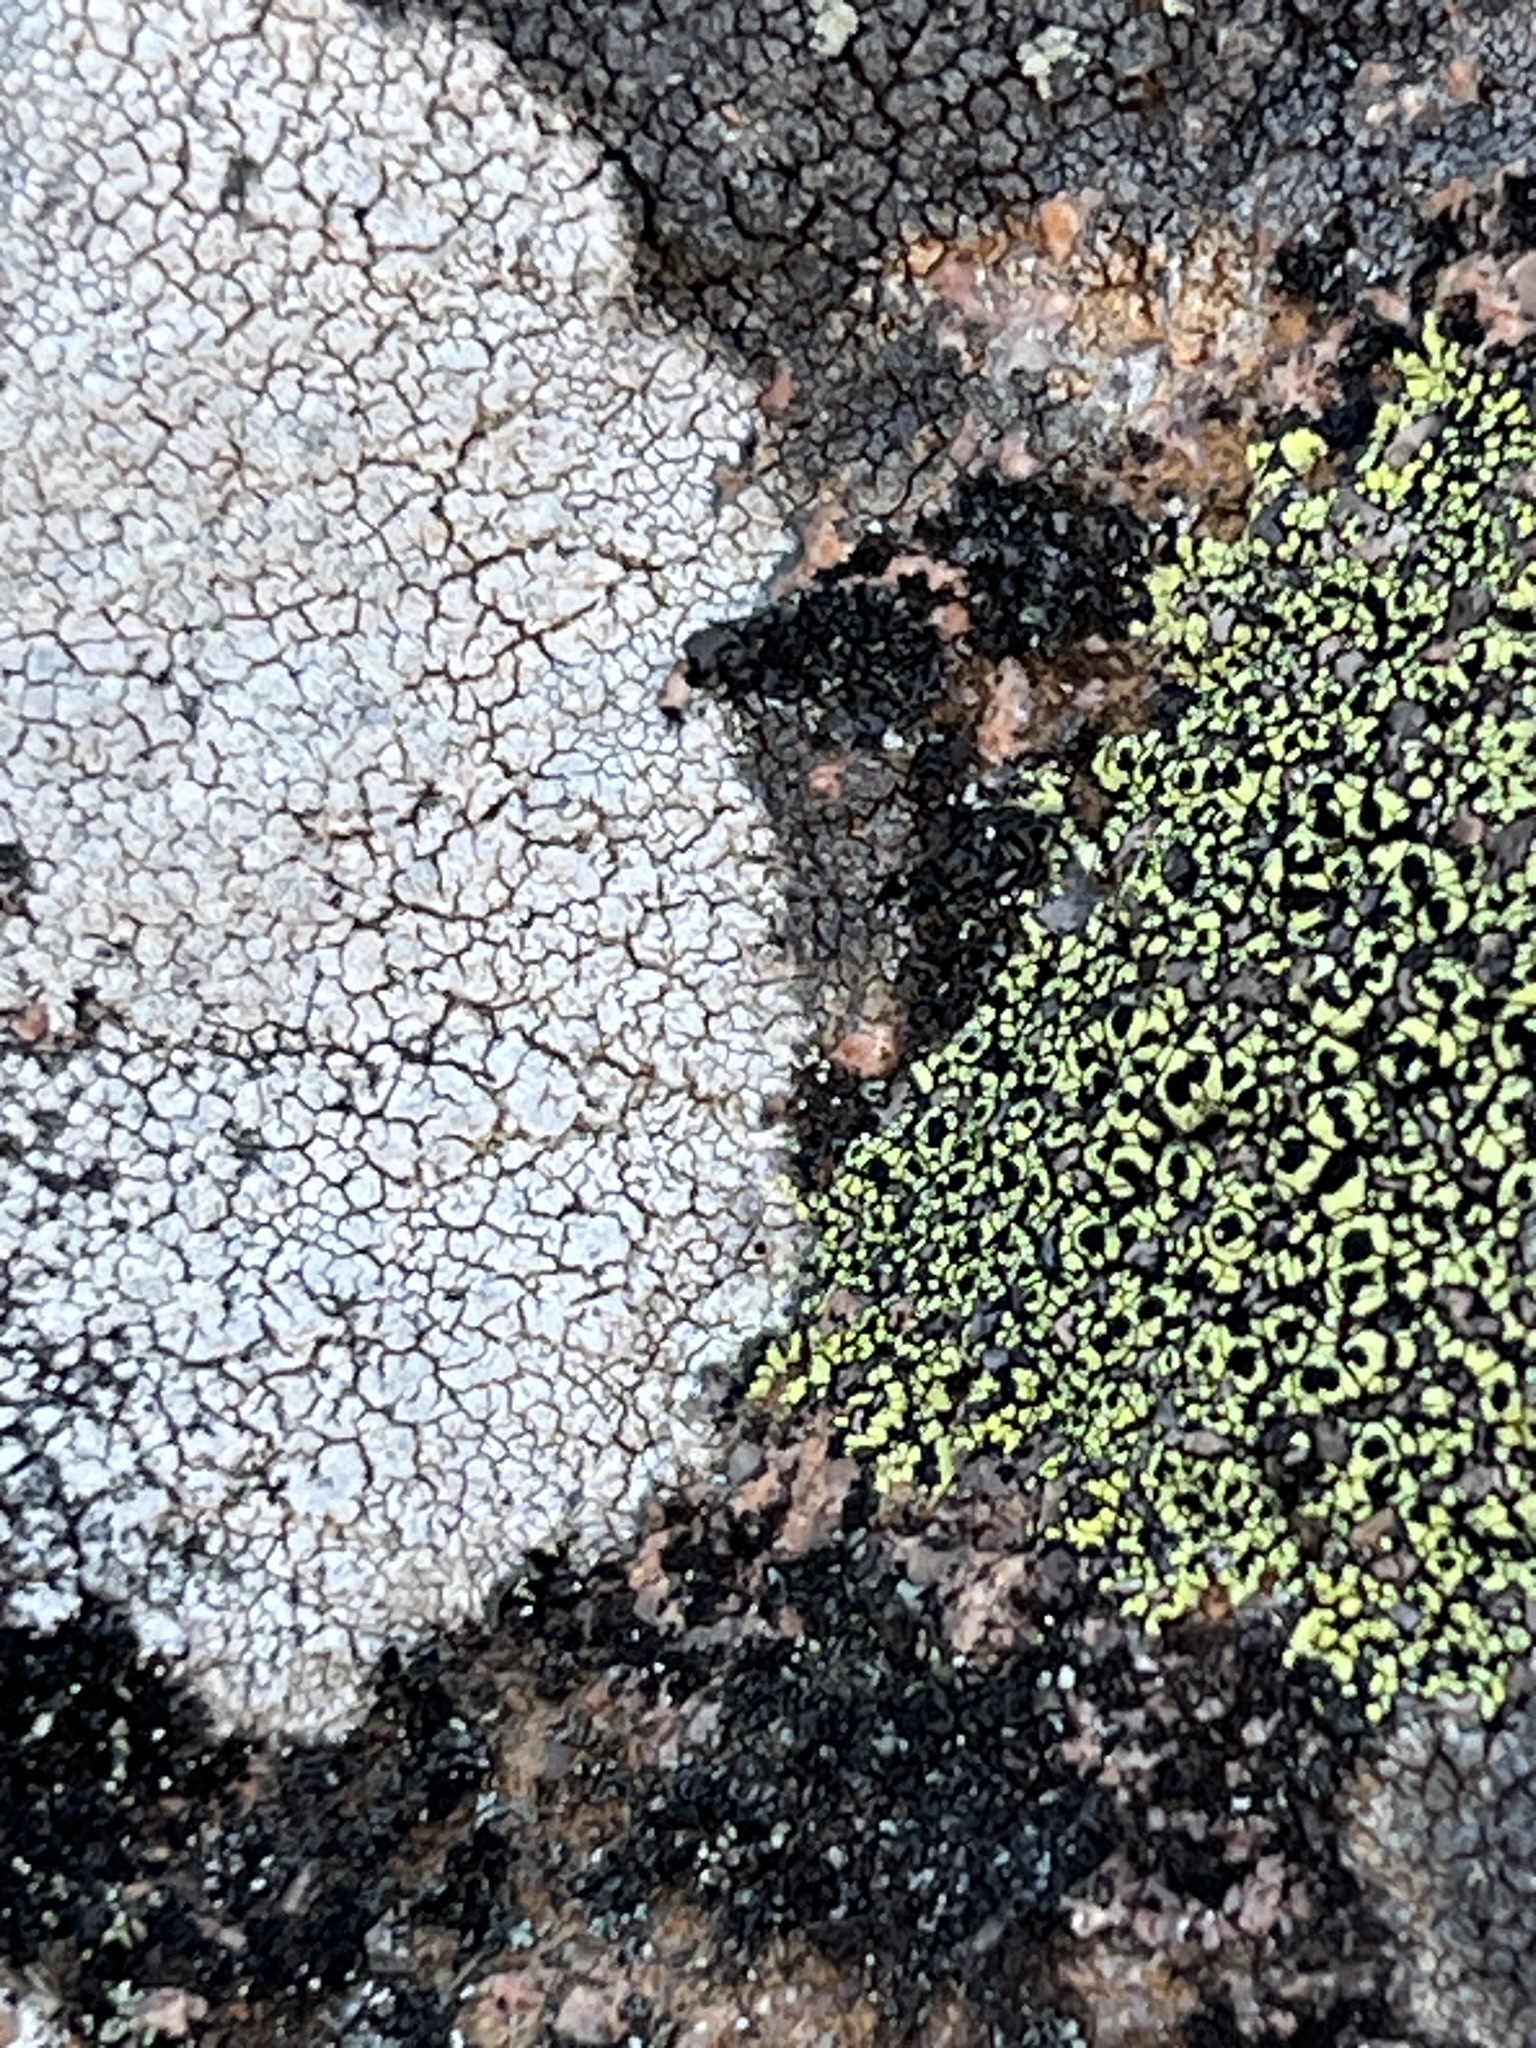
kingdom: Fungi
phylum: Ascomycota
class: Lecanoromycetes
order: Rhizocarpales
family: Rhizocarpaceae
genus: Rhizocarpon
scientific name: Rhizocarpon lecanorinum
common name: Crescent map lichen
